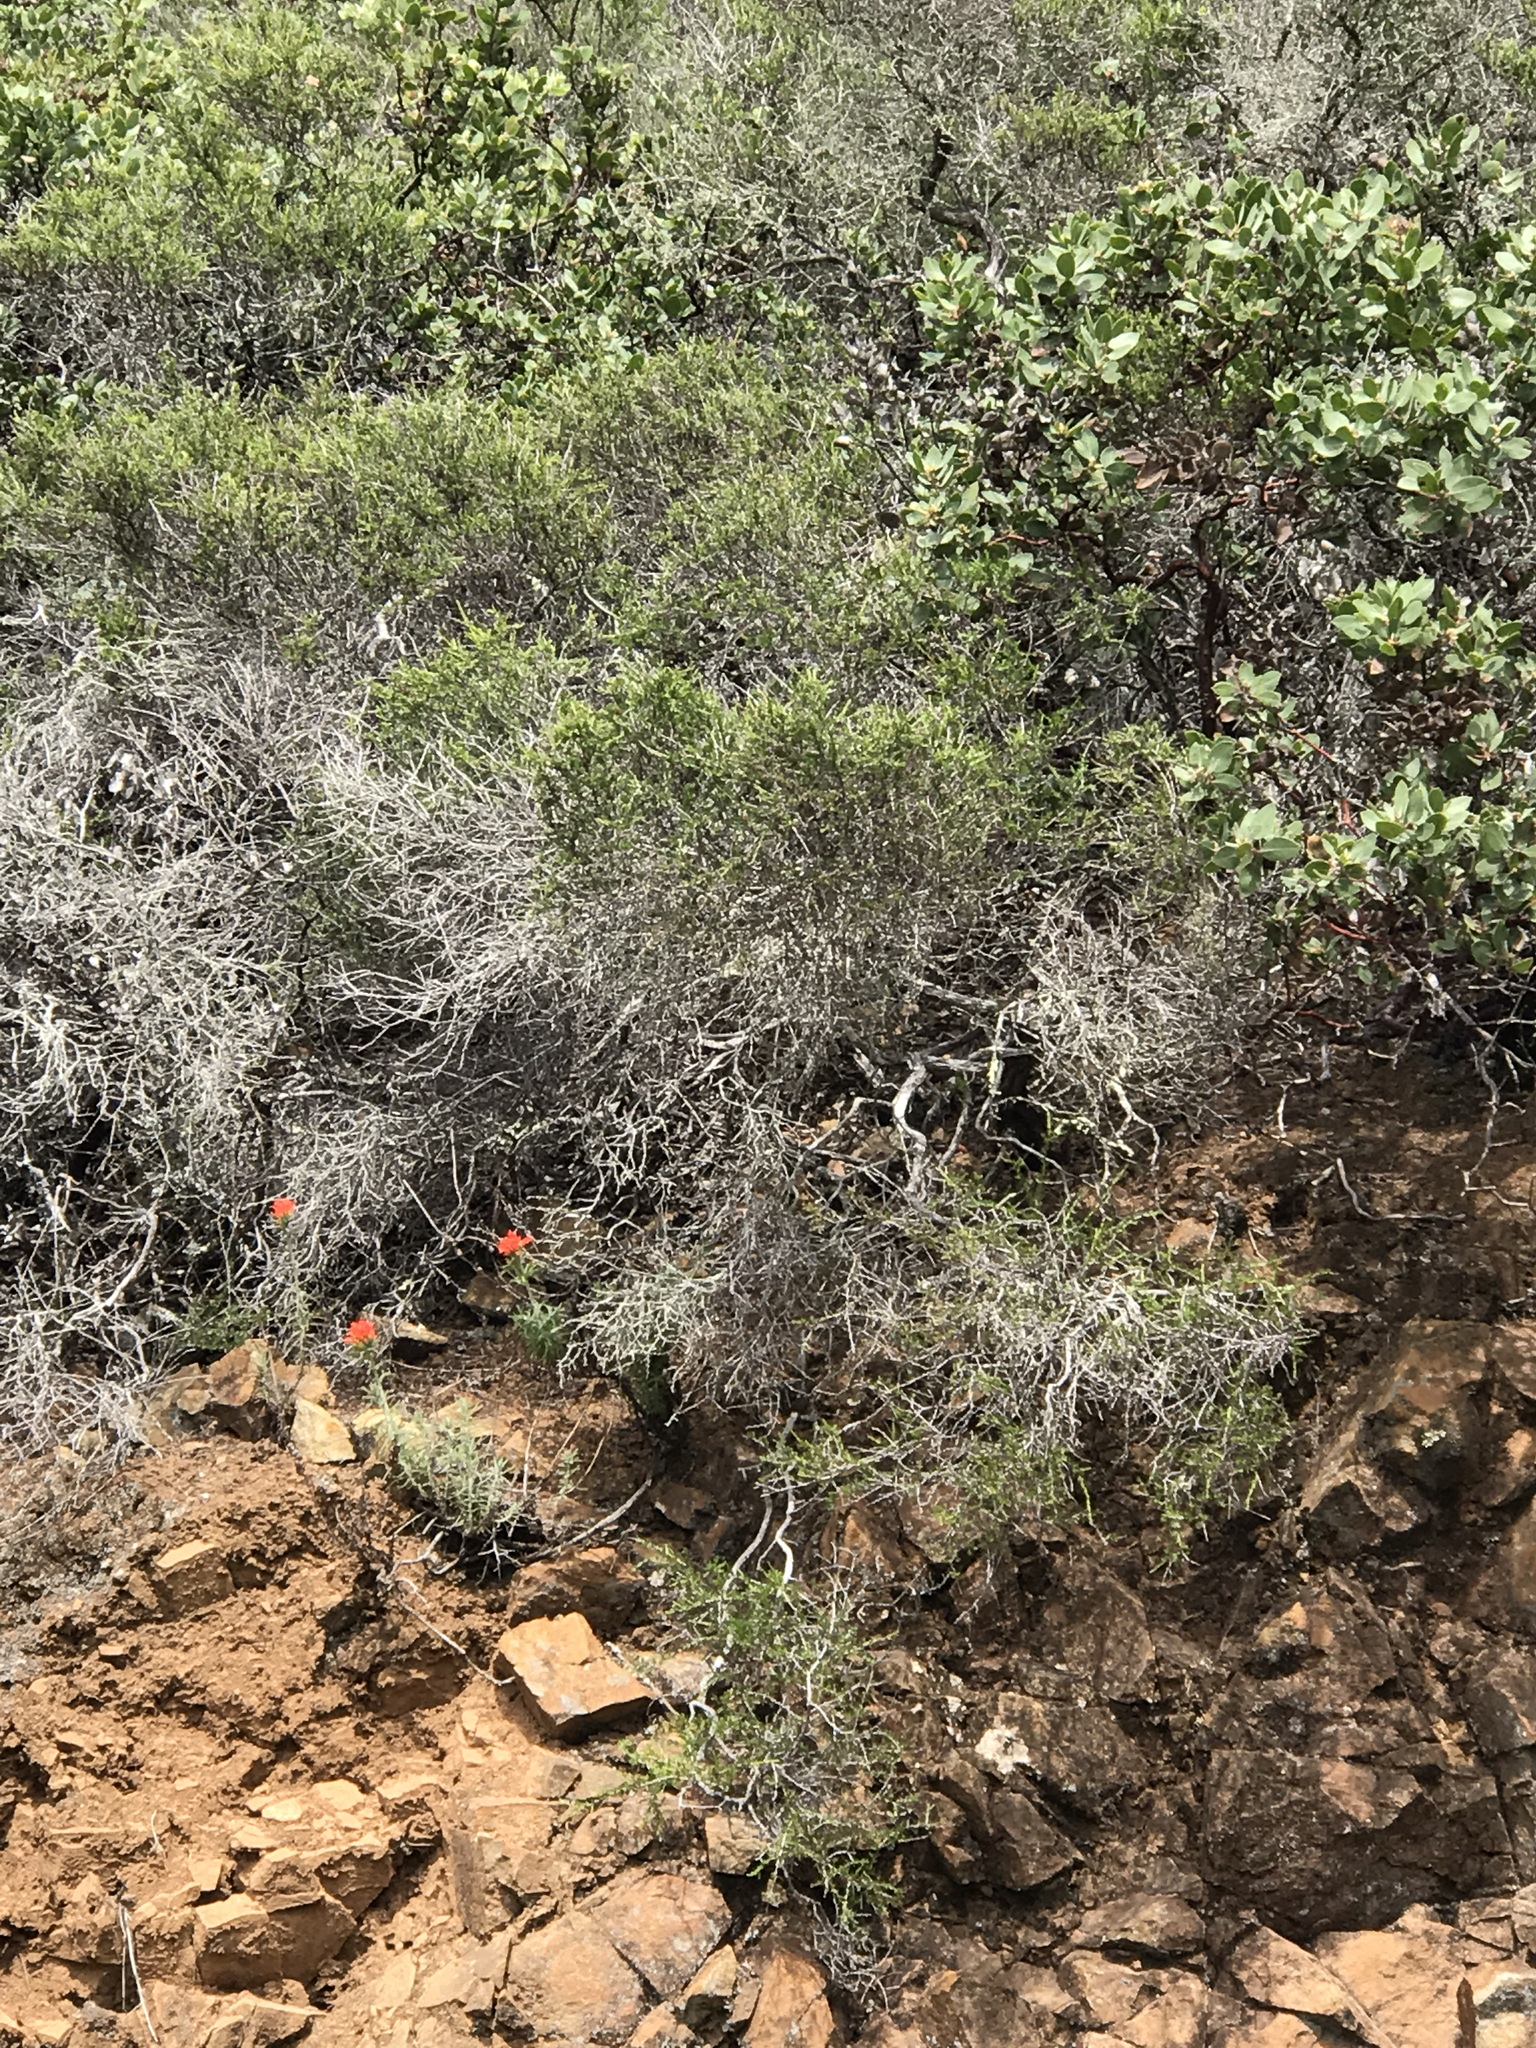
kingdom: Plantae
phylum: Tracheophyta
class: Magnoliopsida
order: Rosales
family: Rosaceae
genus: Adenostoma
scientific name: Adenostoma fasciculatum
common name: Chamise
